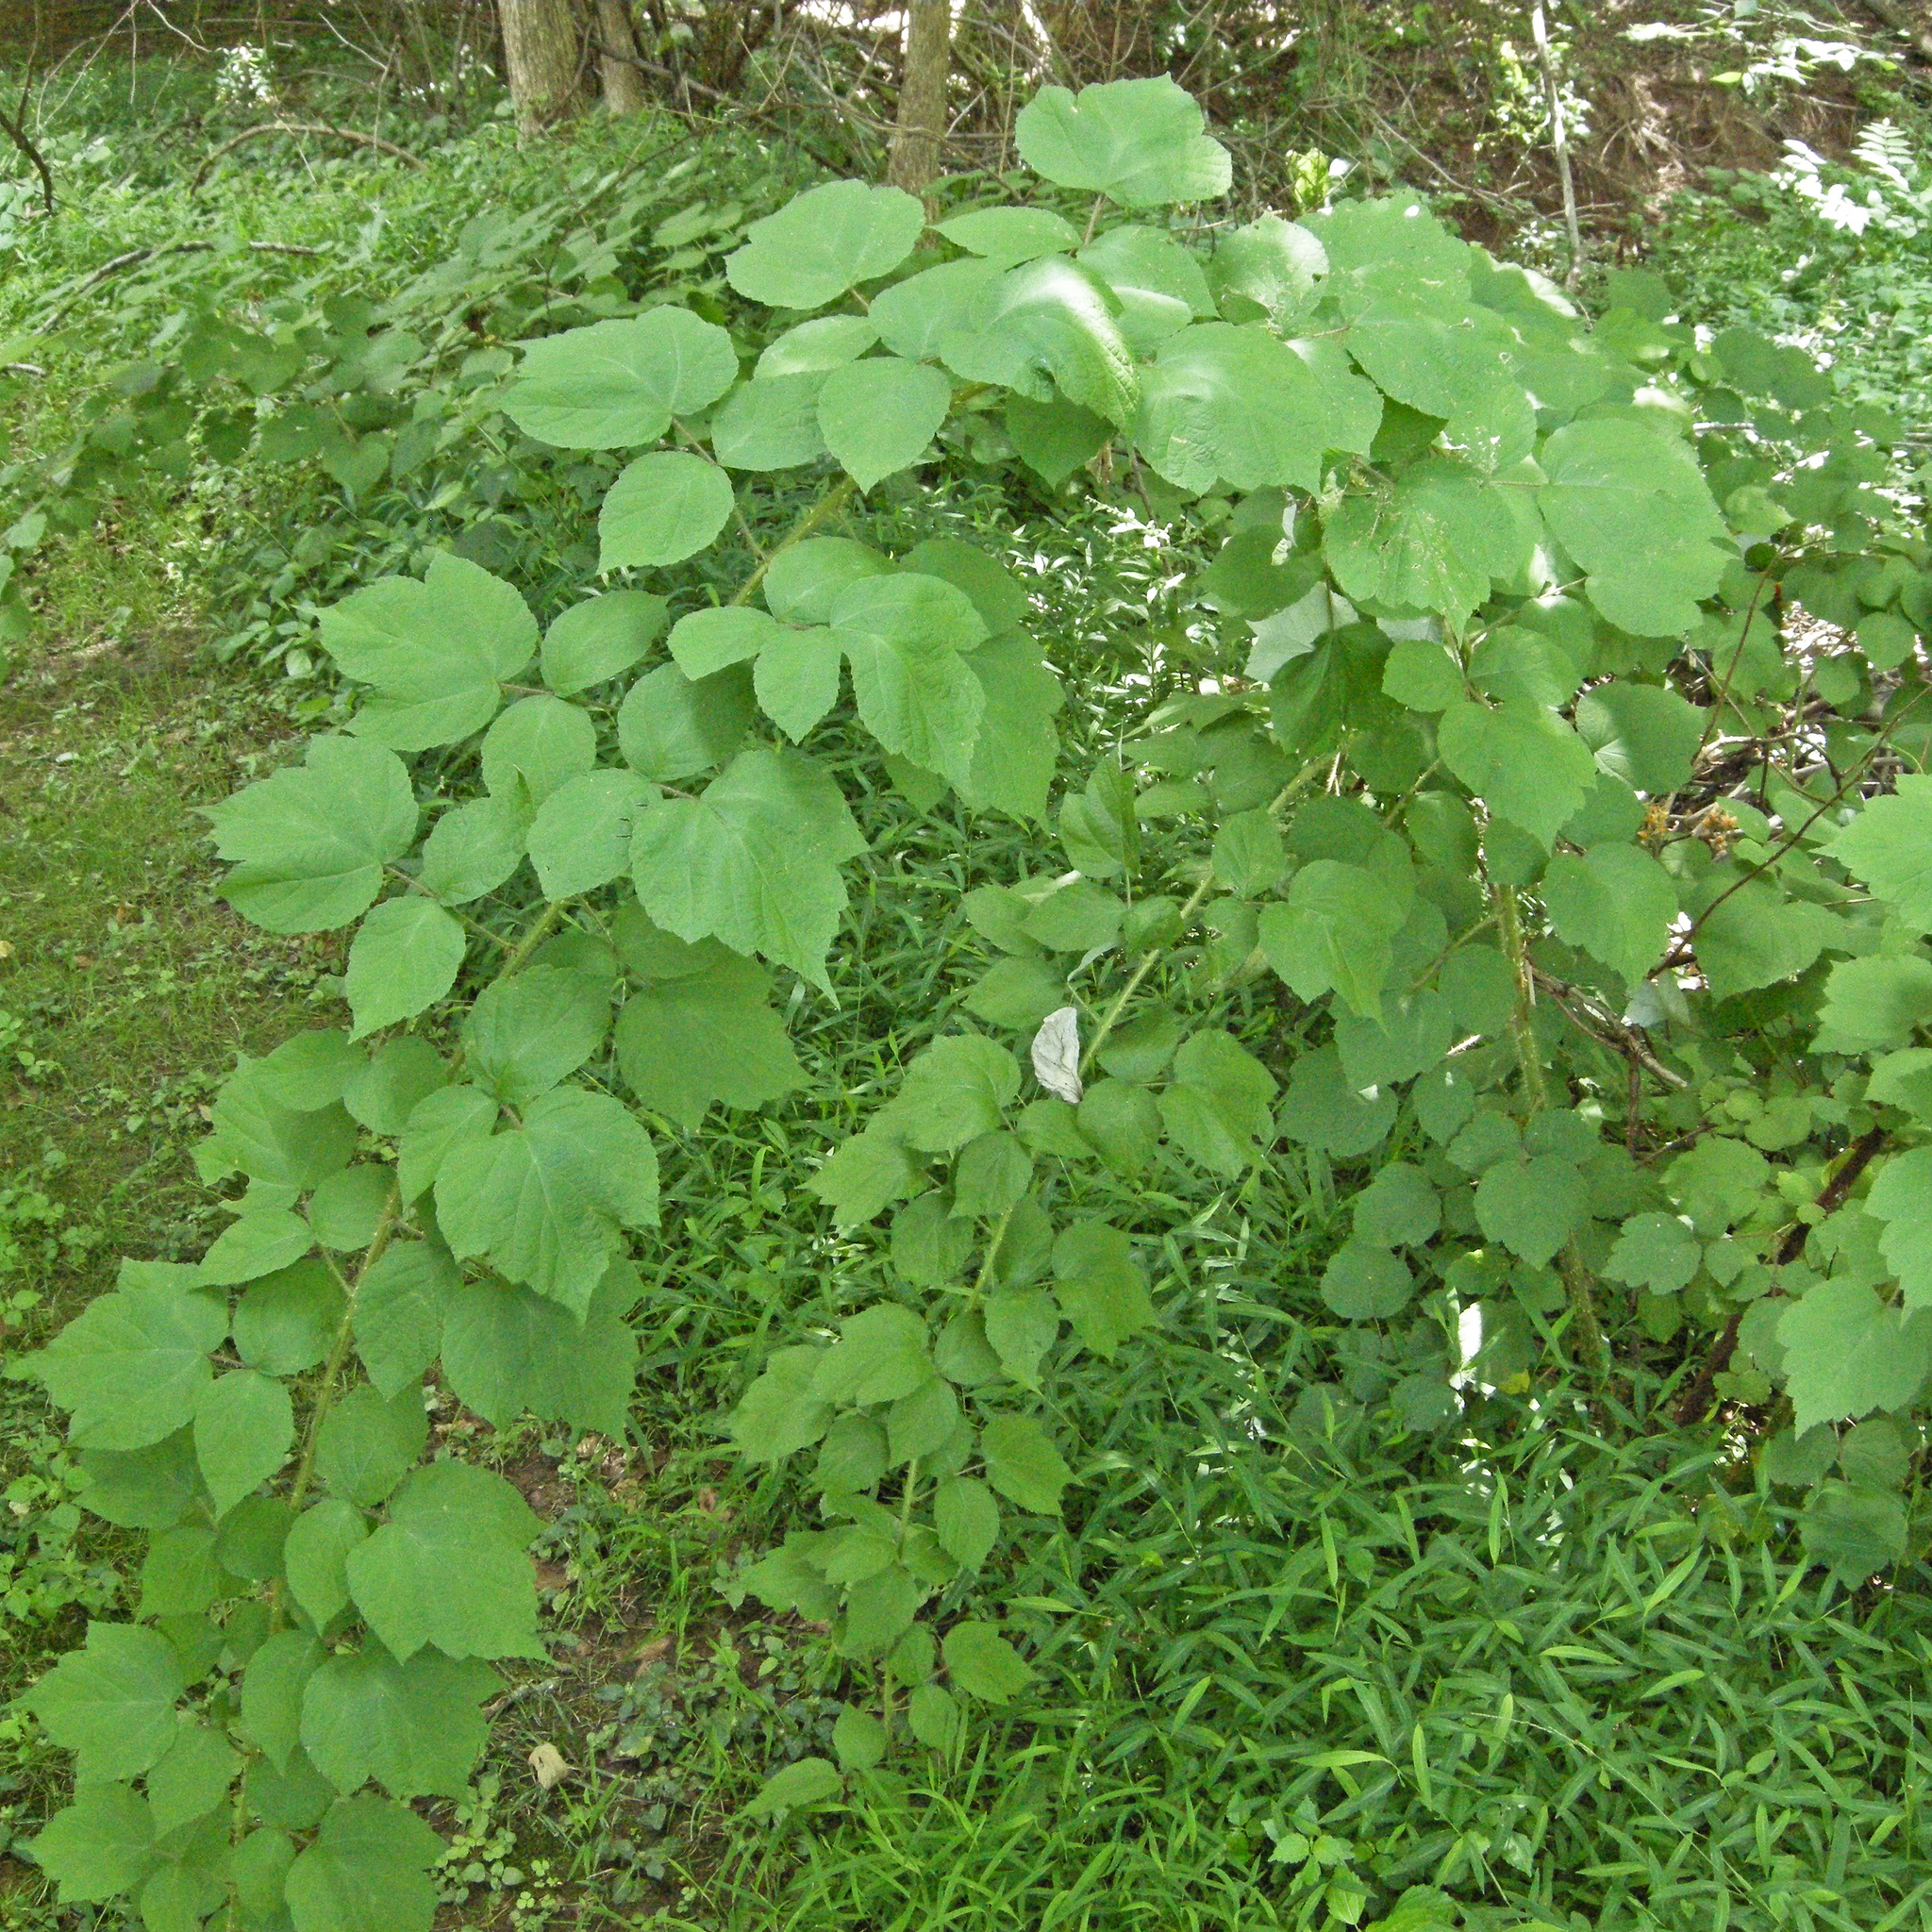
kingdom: Plantae
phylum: Tracheophyta
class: Magnoliopsida
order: Rosales
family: Rosaceae
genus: Rubus
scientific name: Rubus phoenicolasius
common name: Japanese wineberry
